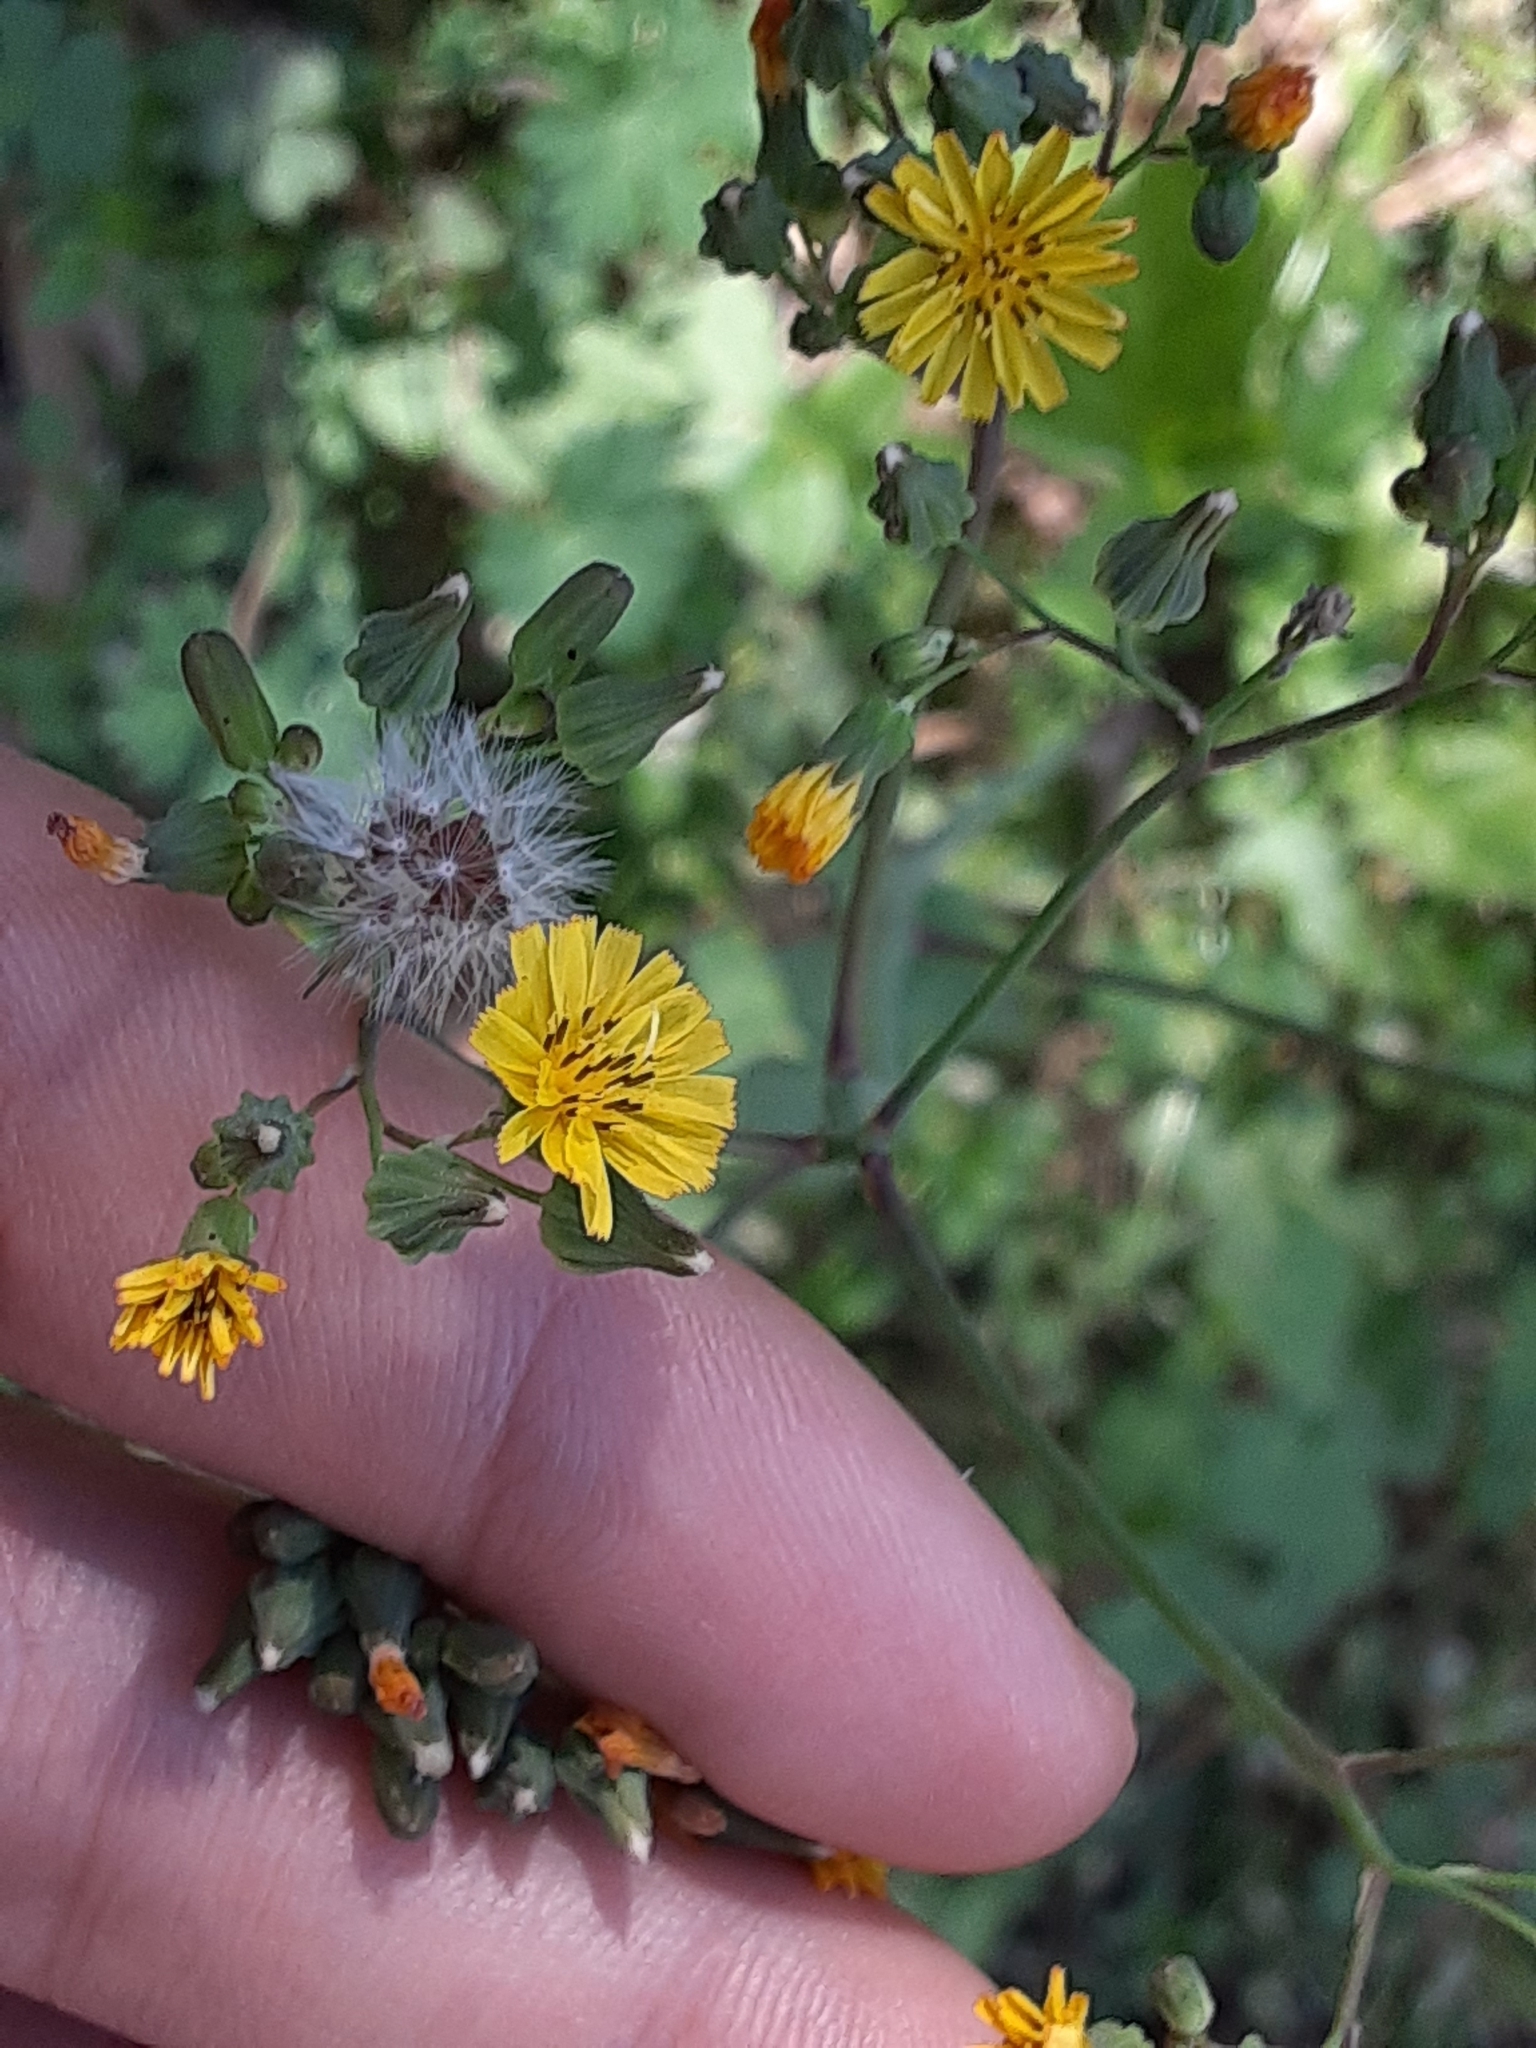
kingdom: Plantae
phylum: Tracheophyta
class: Magnoliopsida
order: Asterales
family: Asteraceae
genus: Youngia
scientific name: Youngia japonica
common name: Oriental false hawksbeard
